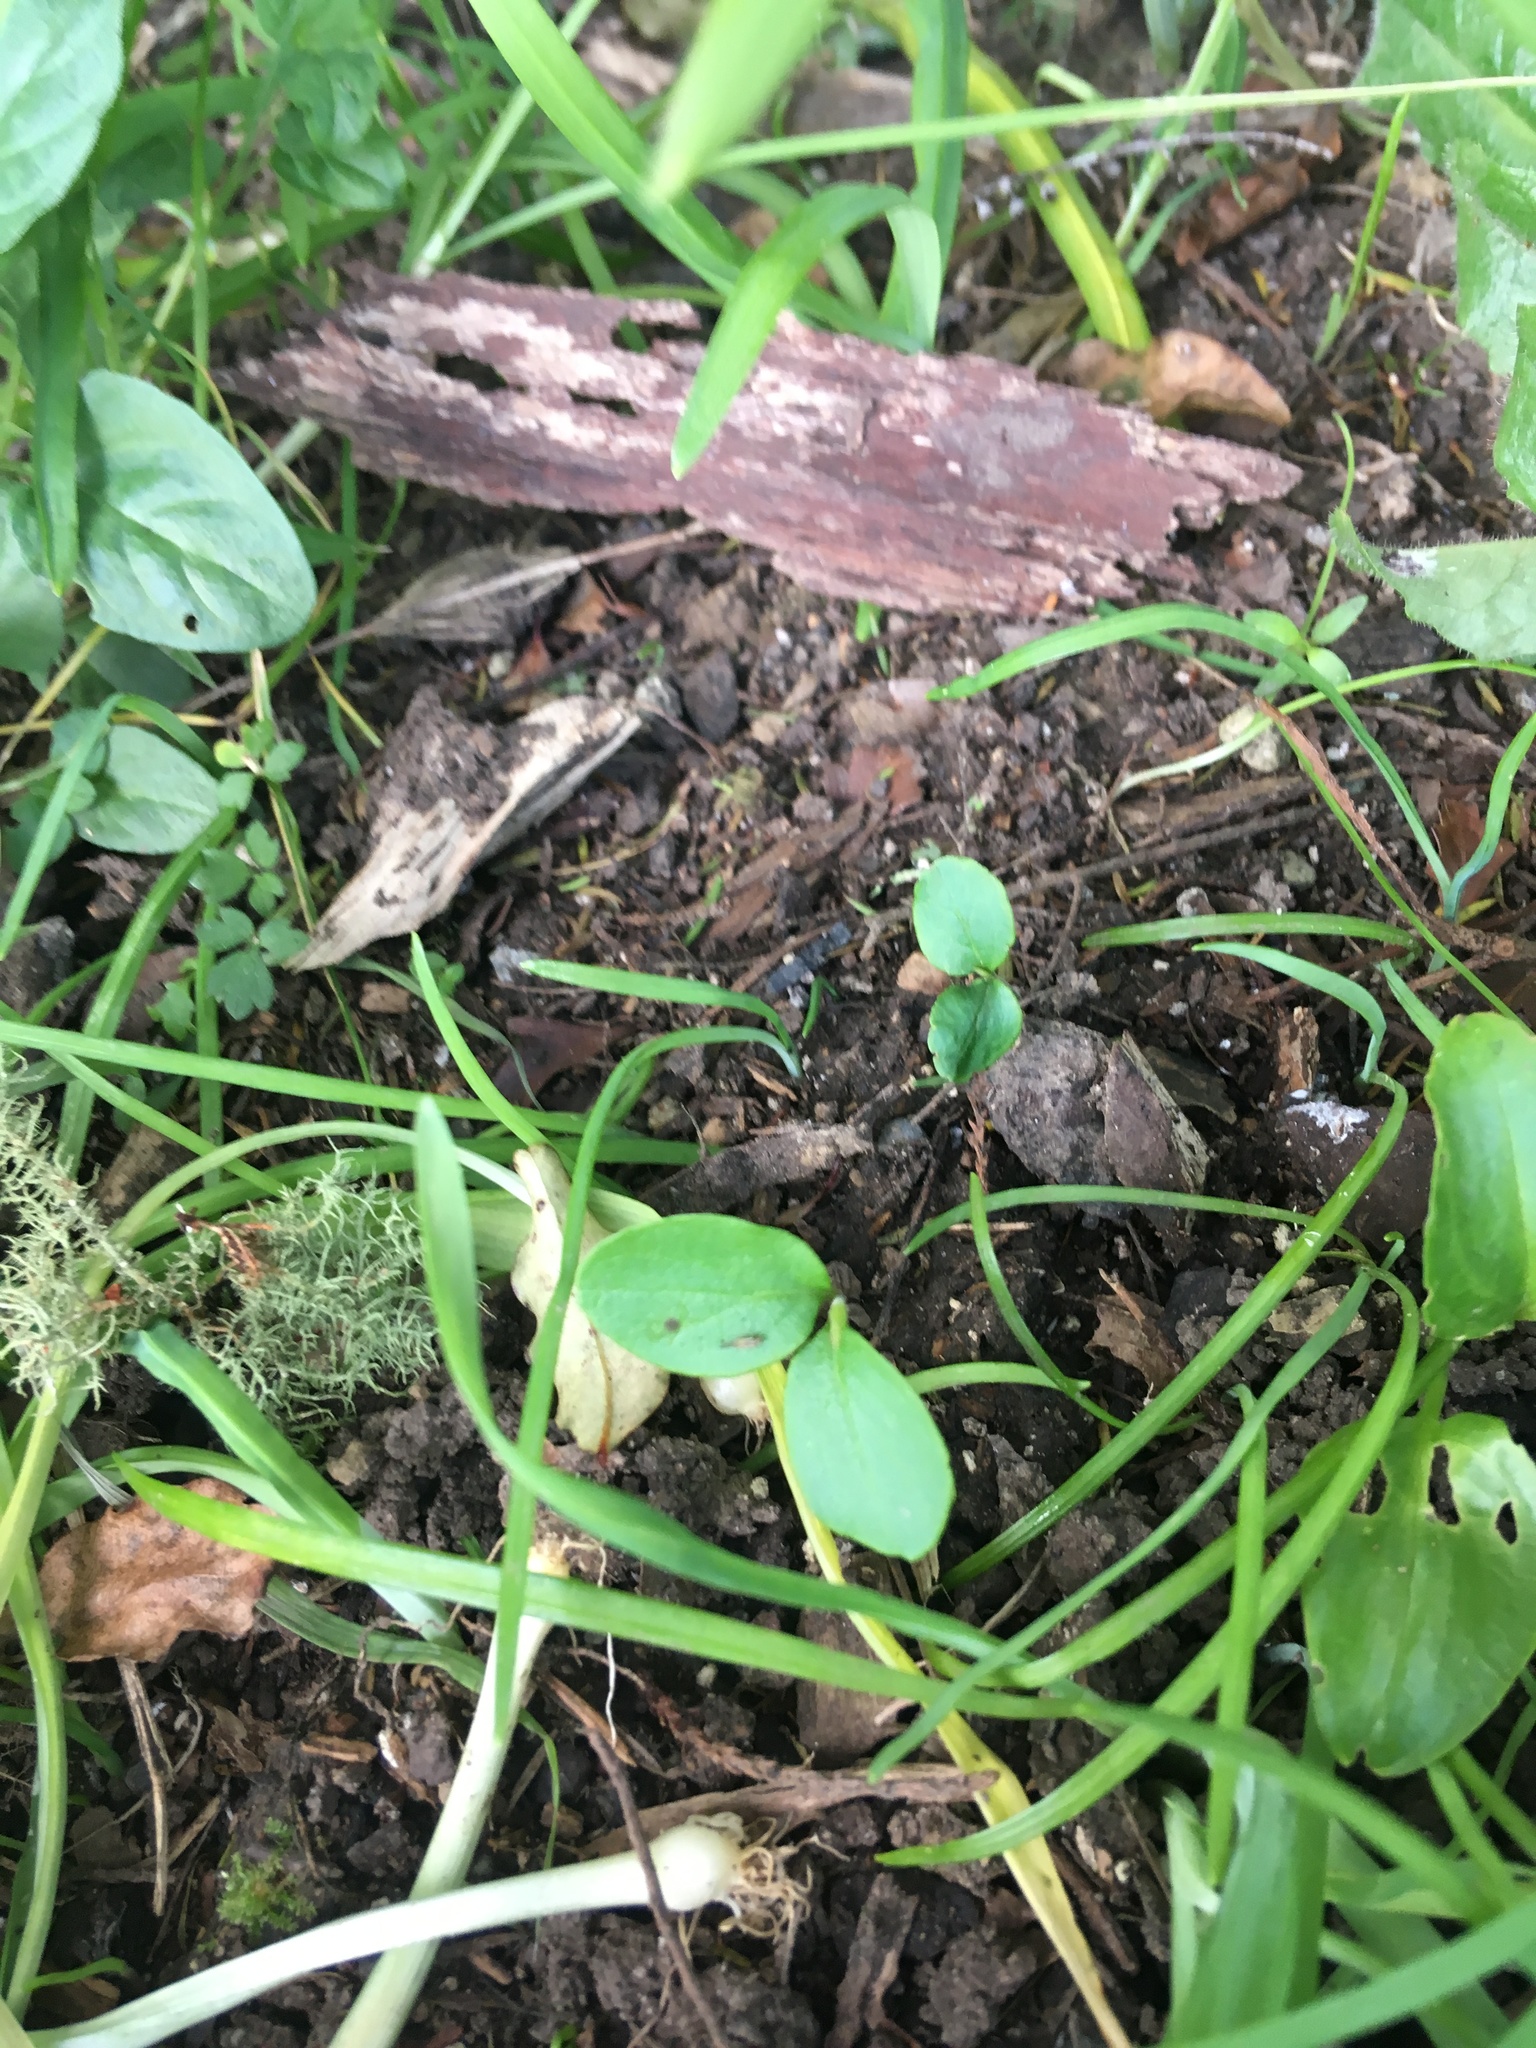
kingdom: Plantae
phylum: Tracheophyta
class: Magnoliopsida
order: Lamiales
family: Oleaceae
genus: Ligustrum
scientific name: Ligustrum sinense
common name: Chinese privet
